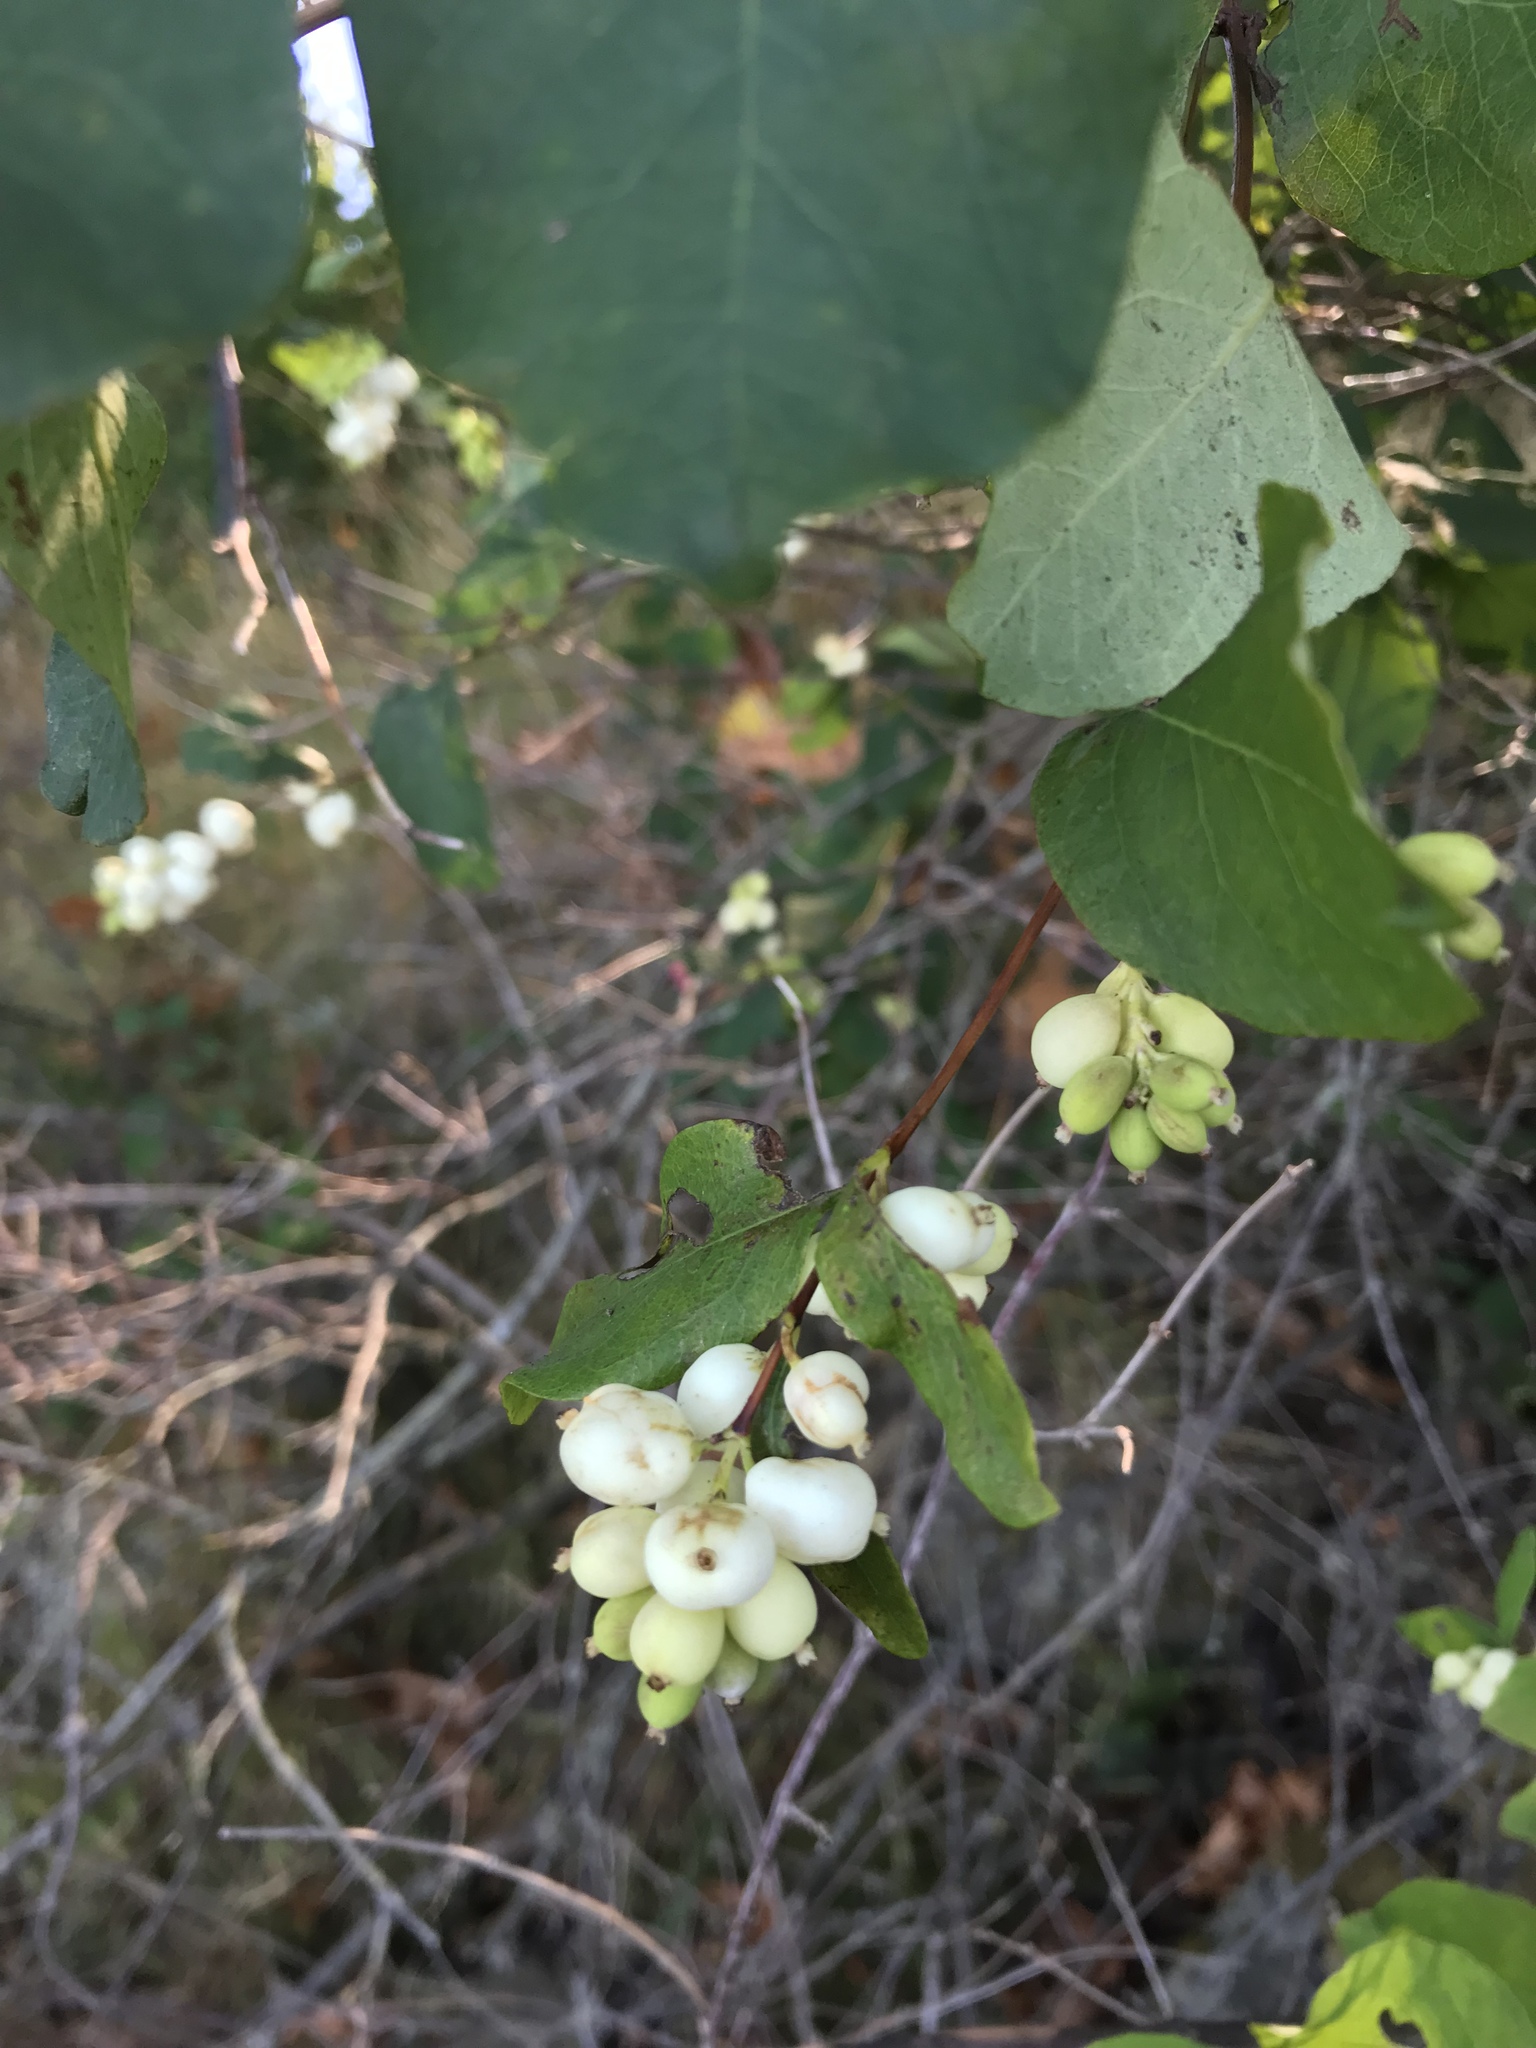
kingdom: Plantae
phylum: Tracheophyta
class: Magnoliopsida
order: Dipsacales
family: Caprifoliaceae
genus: Symphoricarpos
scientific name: Symphoricarpos albus
